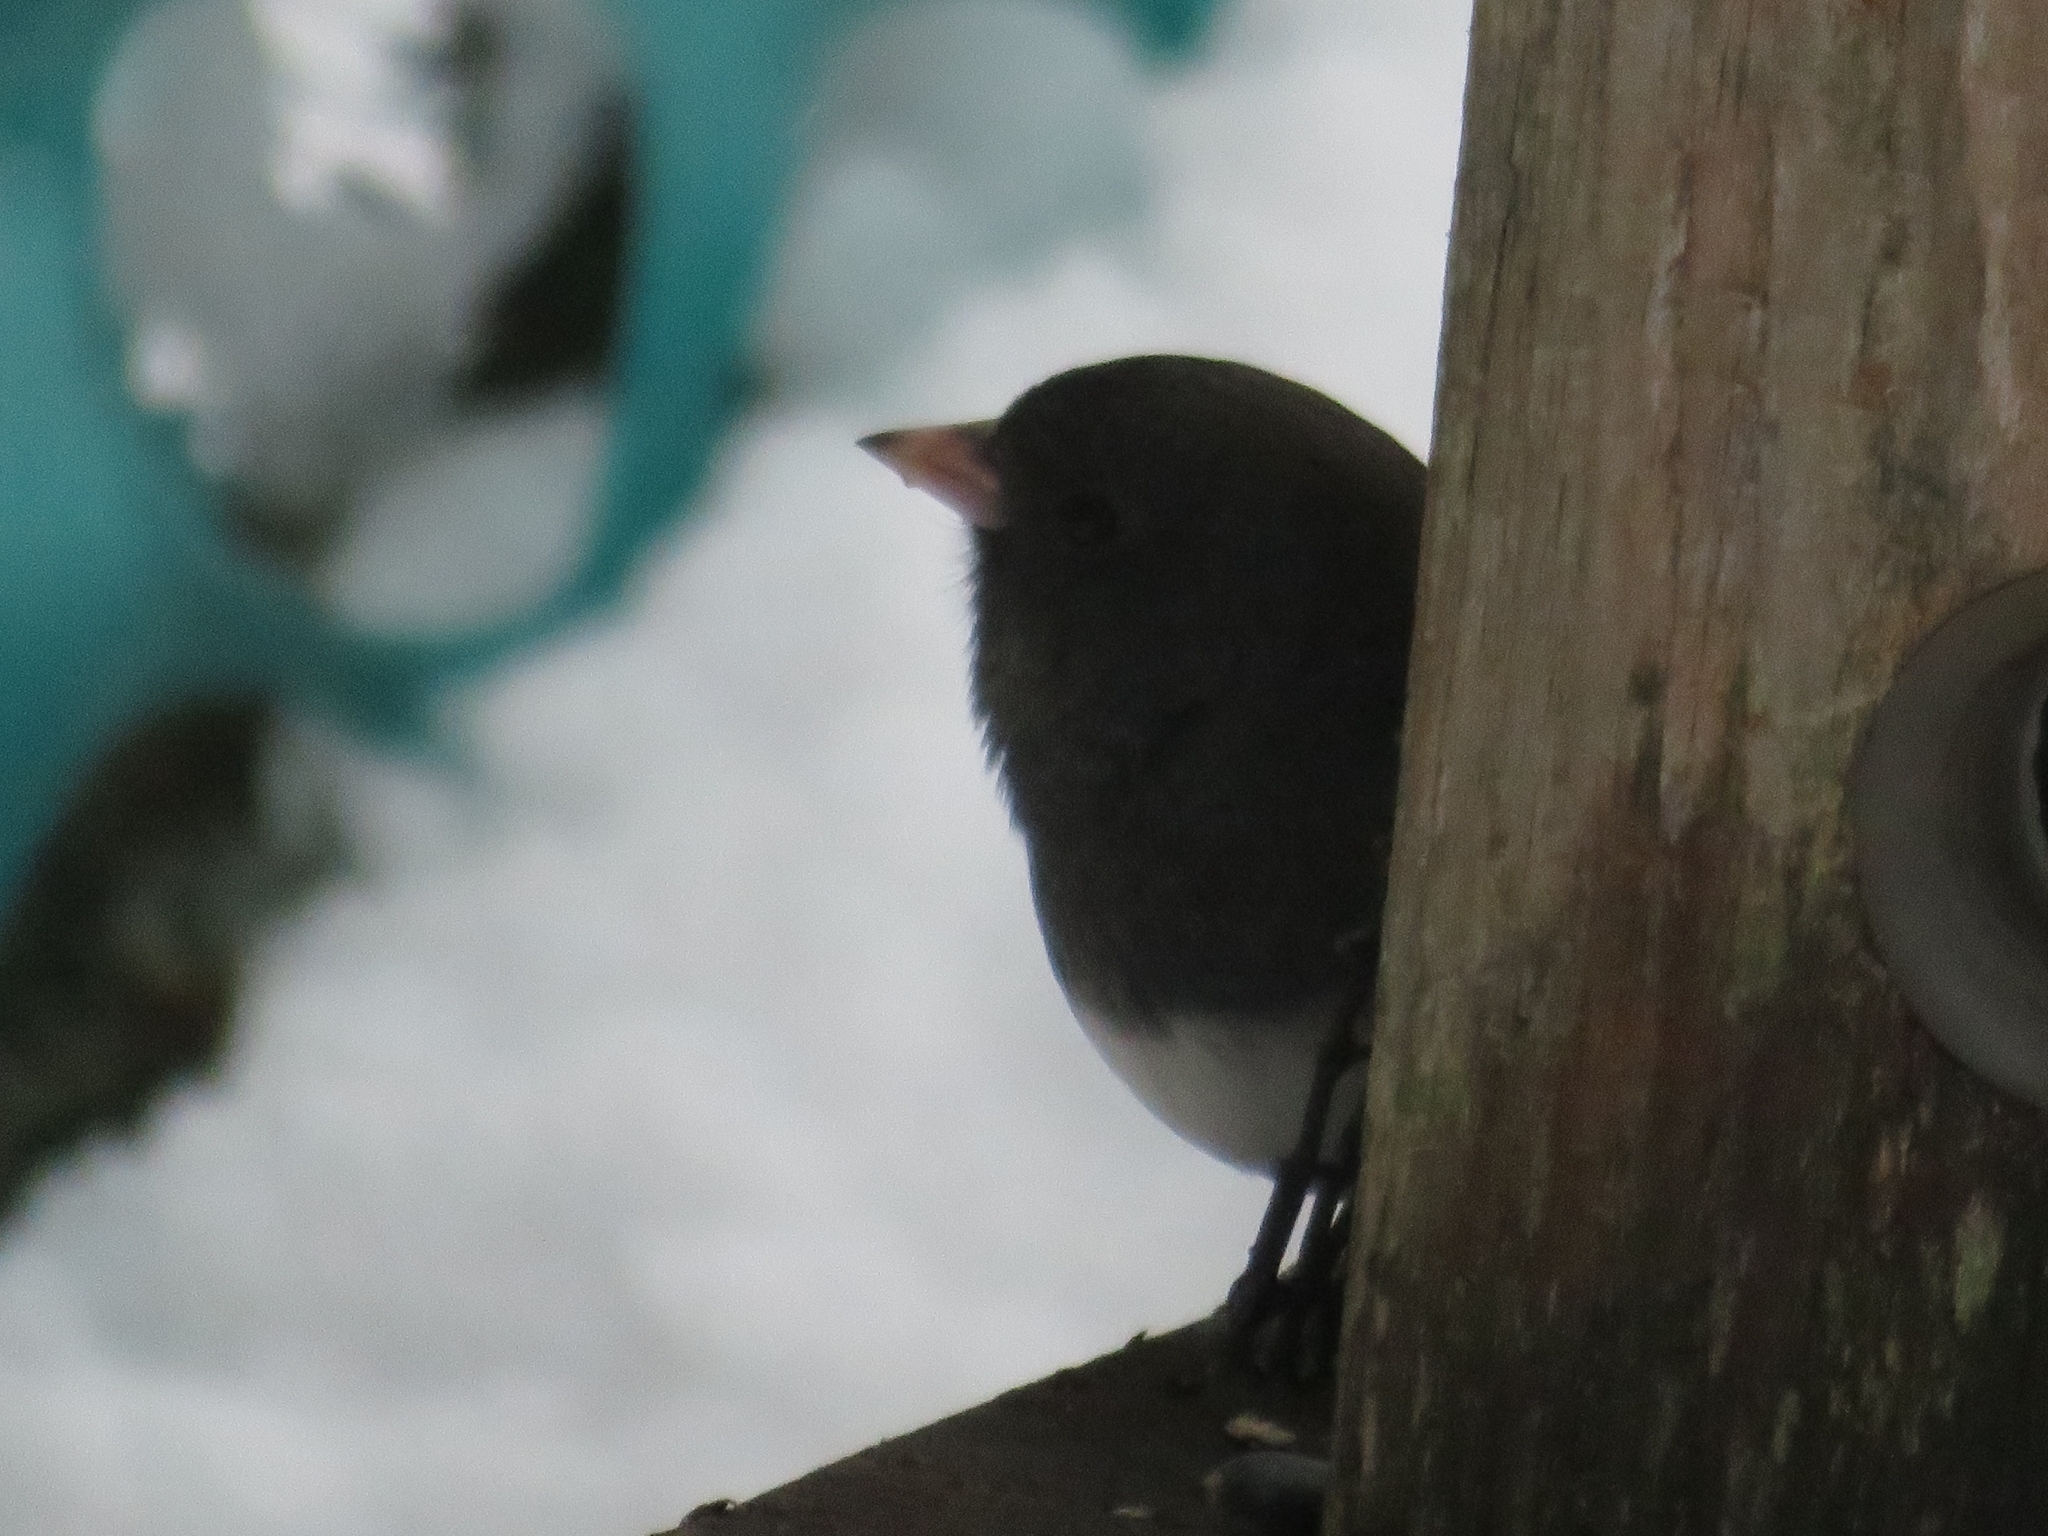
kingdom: Animalia
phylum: Chordata
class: Aves
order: Passeriformes
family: Passerellidae
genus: Junco
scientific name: Junco hyemalis
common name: Dark-eyed junco
